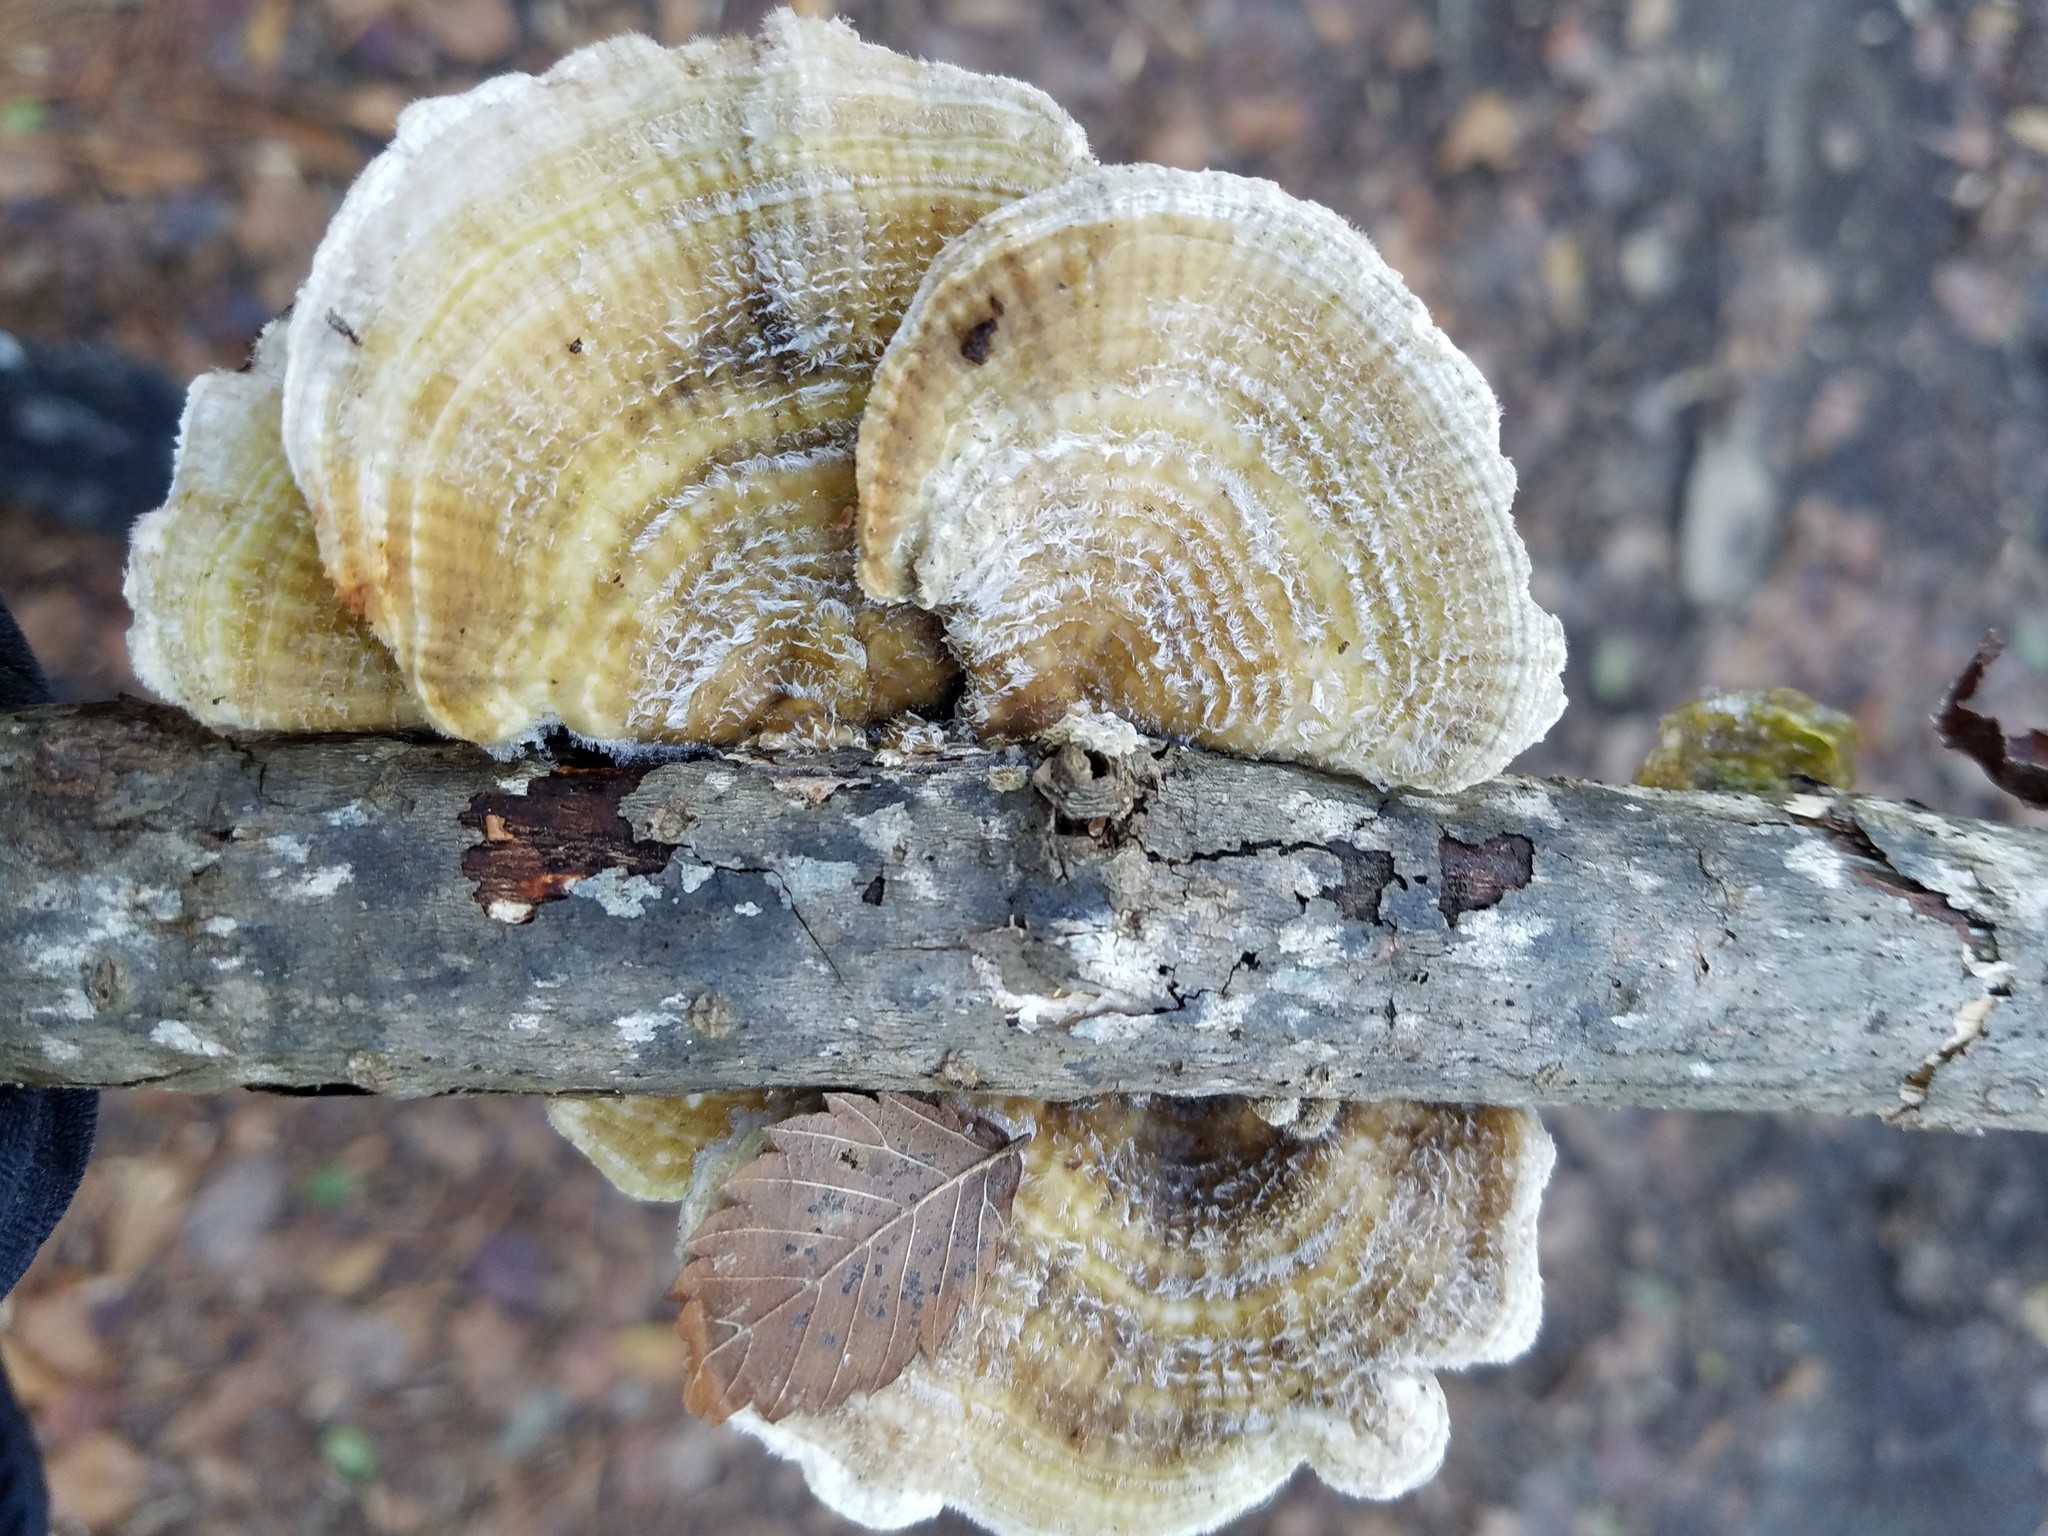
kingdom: Fungi
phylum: Basidiomycota
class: Agaricomycetes
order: Polyporales
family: Polyporaceae
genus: Lenzites
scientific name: Lenzites betulinus
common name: Birch mazegill
